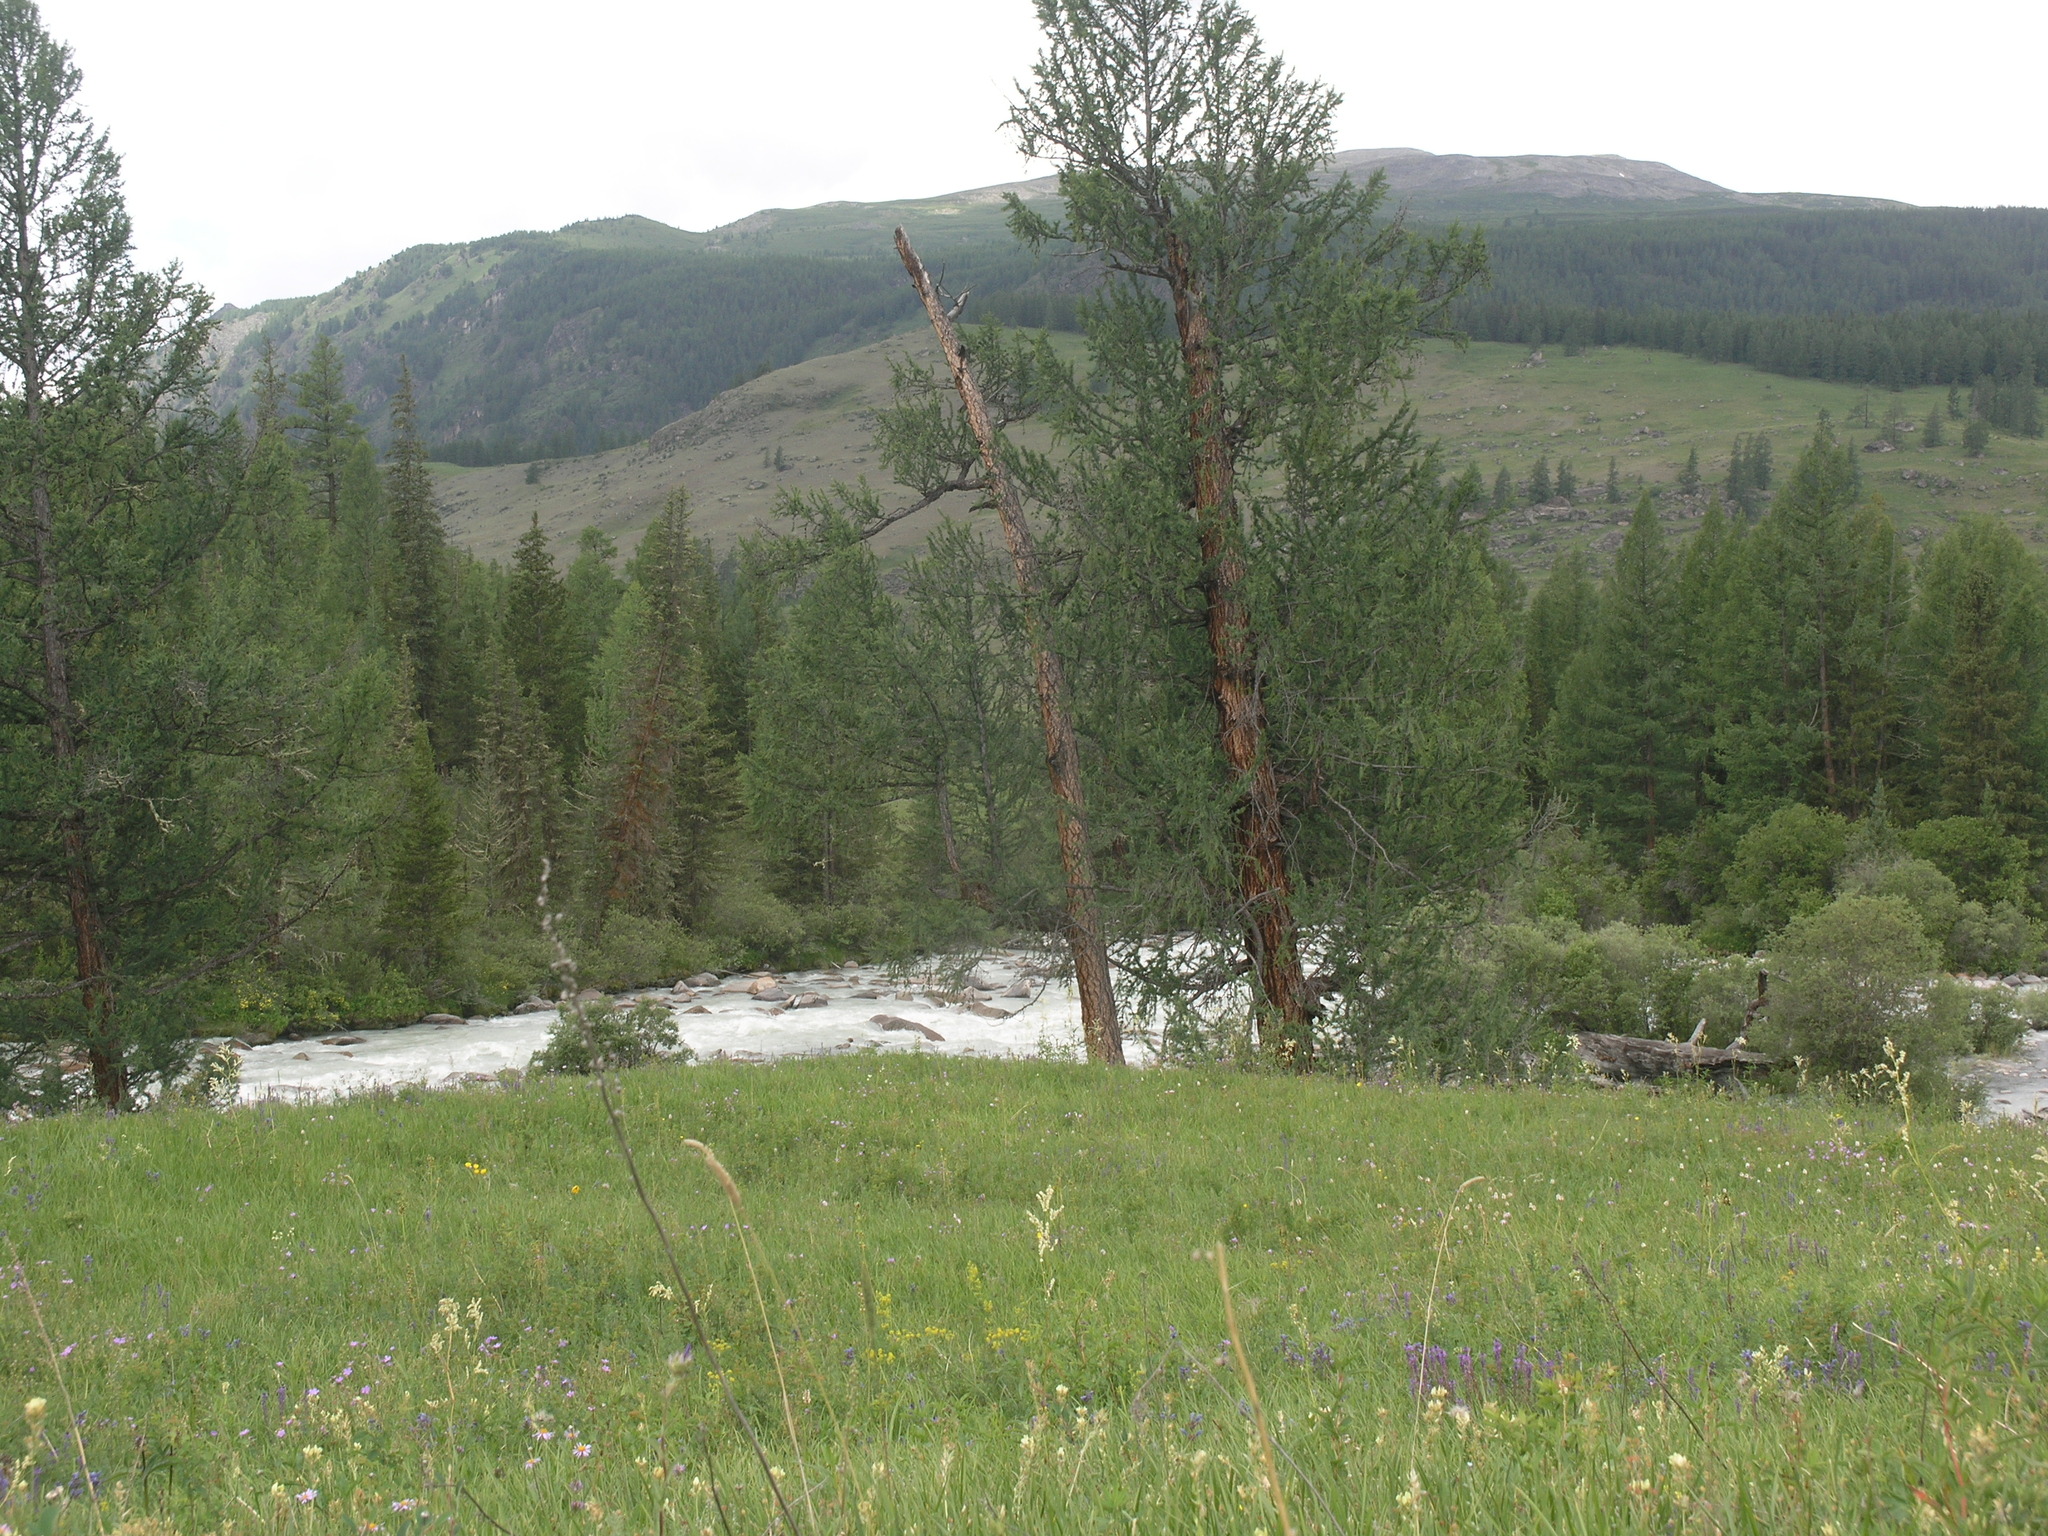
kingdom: Plantae
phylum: Tracheophyta
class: Pinopsida
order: Pinales
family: Pinaceae
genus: Picea
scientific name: Picea obovata
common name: Siberian spruce
